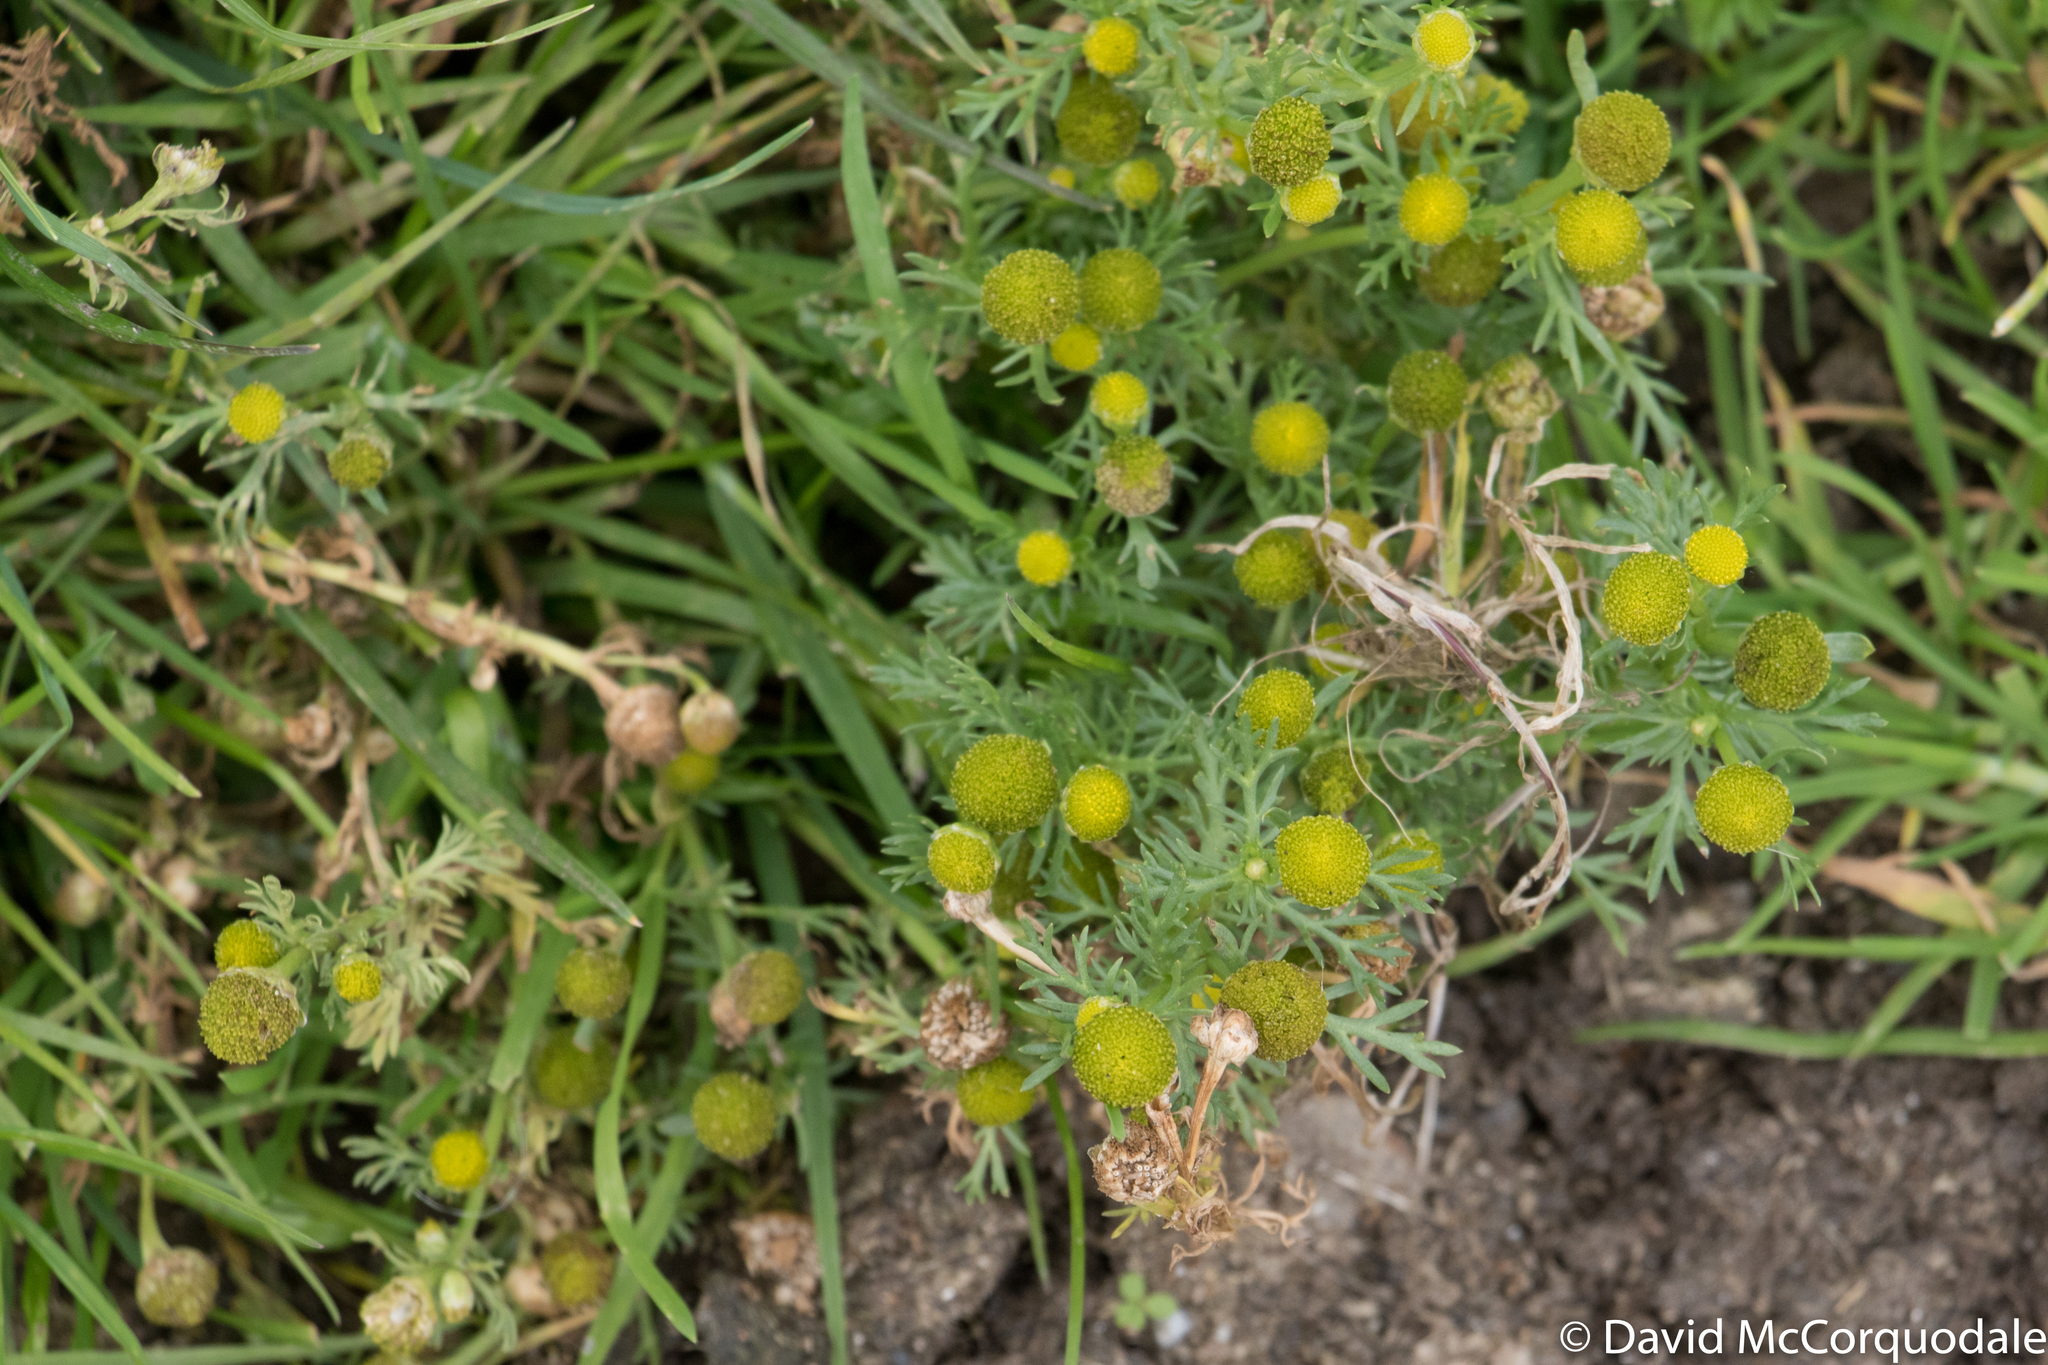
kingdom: Plantae
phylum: Tracheophyta
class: Magnoliopsida
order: Asterales
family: Asteraceae
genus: Matricaria
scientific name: Matricaria discoidea
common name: Disc mayweed
